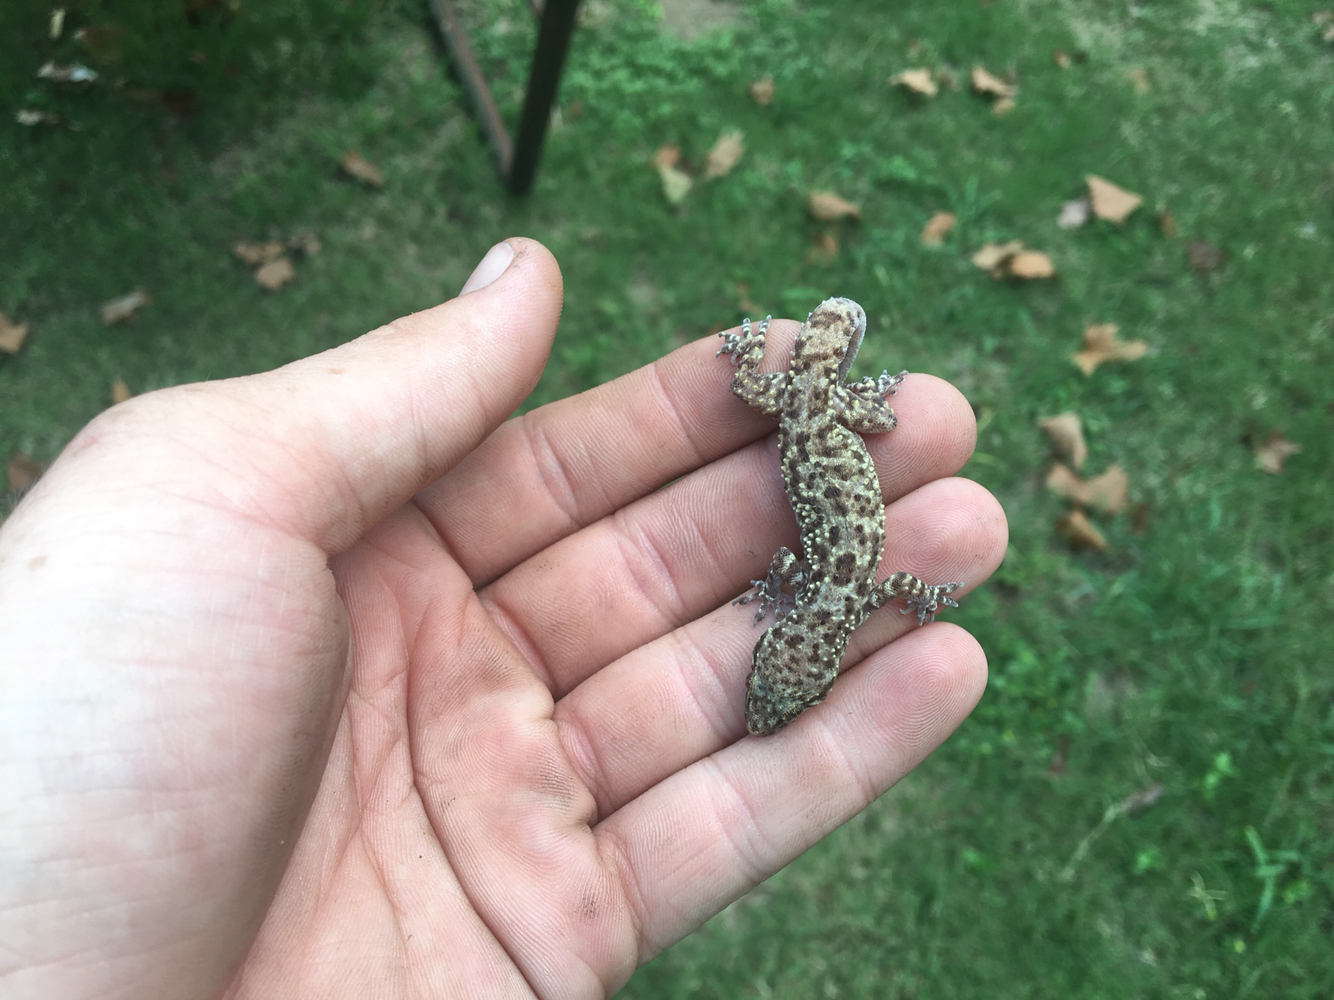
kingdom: Animalia
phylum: Chordata
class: Squamata
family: Gekkonidae
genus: Hemidactylus
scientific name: Hemidactylus turcicus
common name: Turkish gecko
